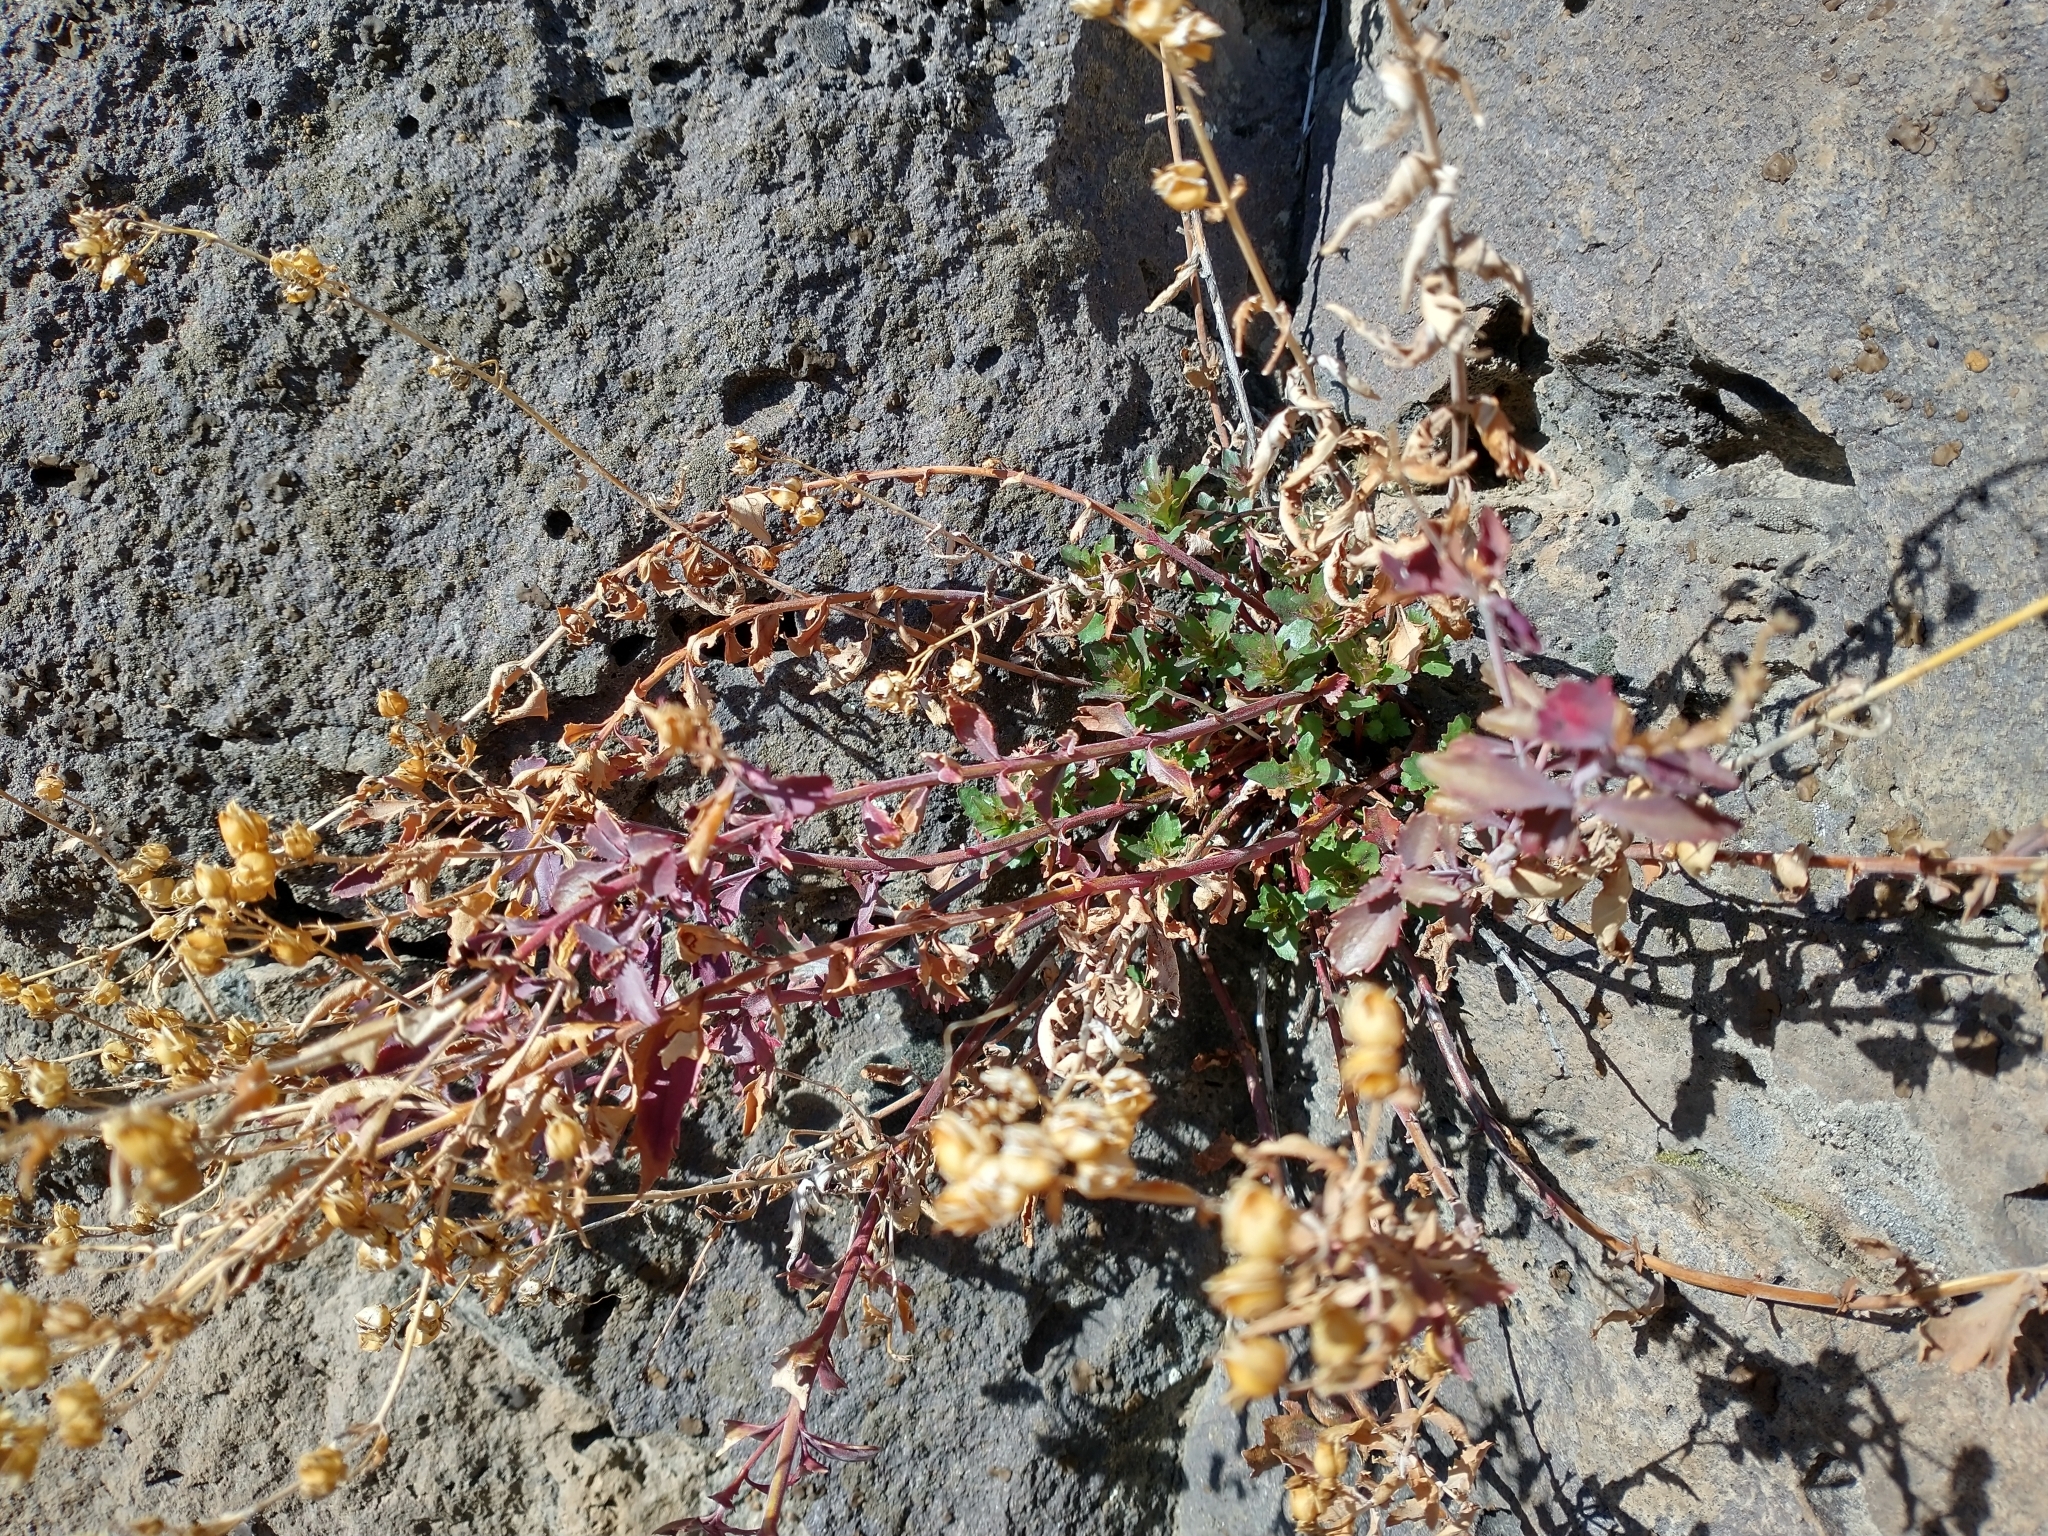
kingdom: Plantae
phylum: Tracheophyta
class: Magnoliopsida
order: Lamiales
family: Plantaginaceae
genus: Penstemon
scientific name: Penstemon richardsonii
